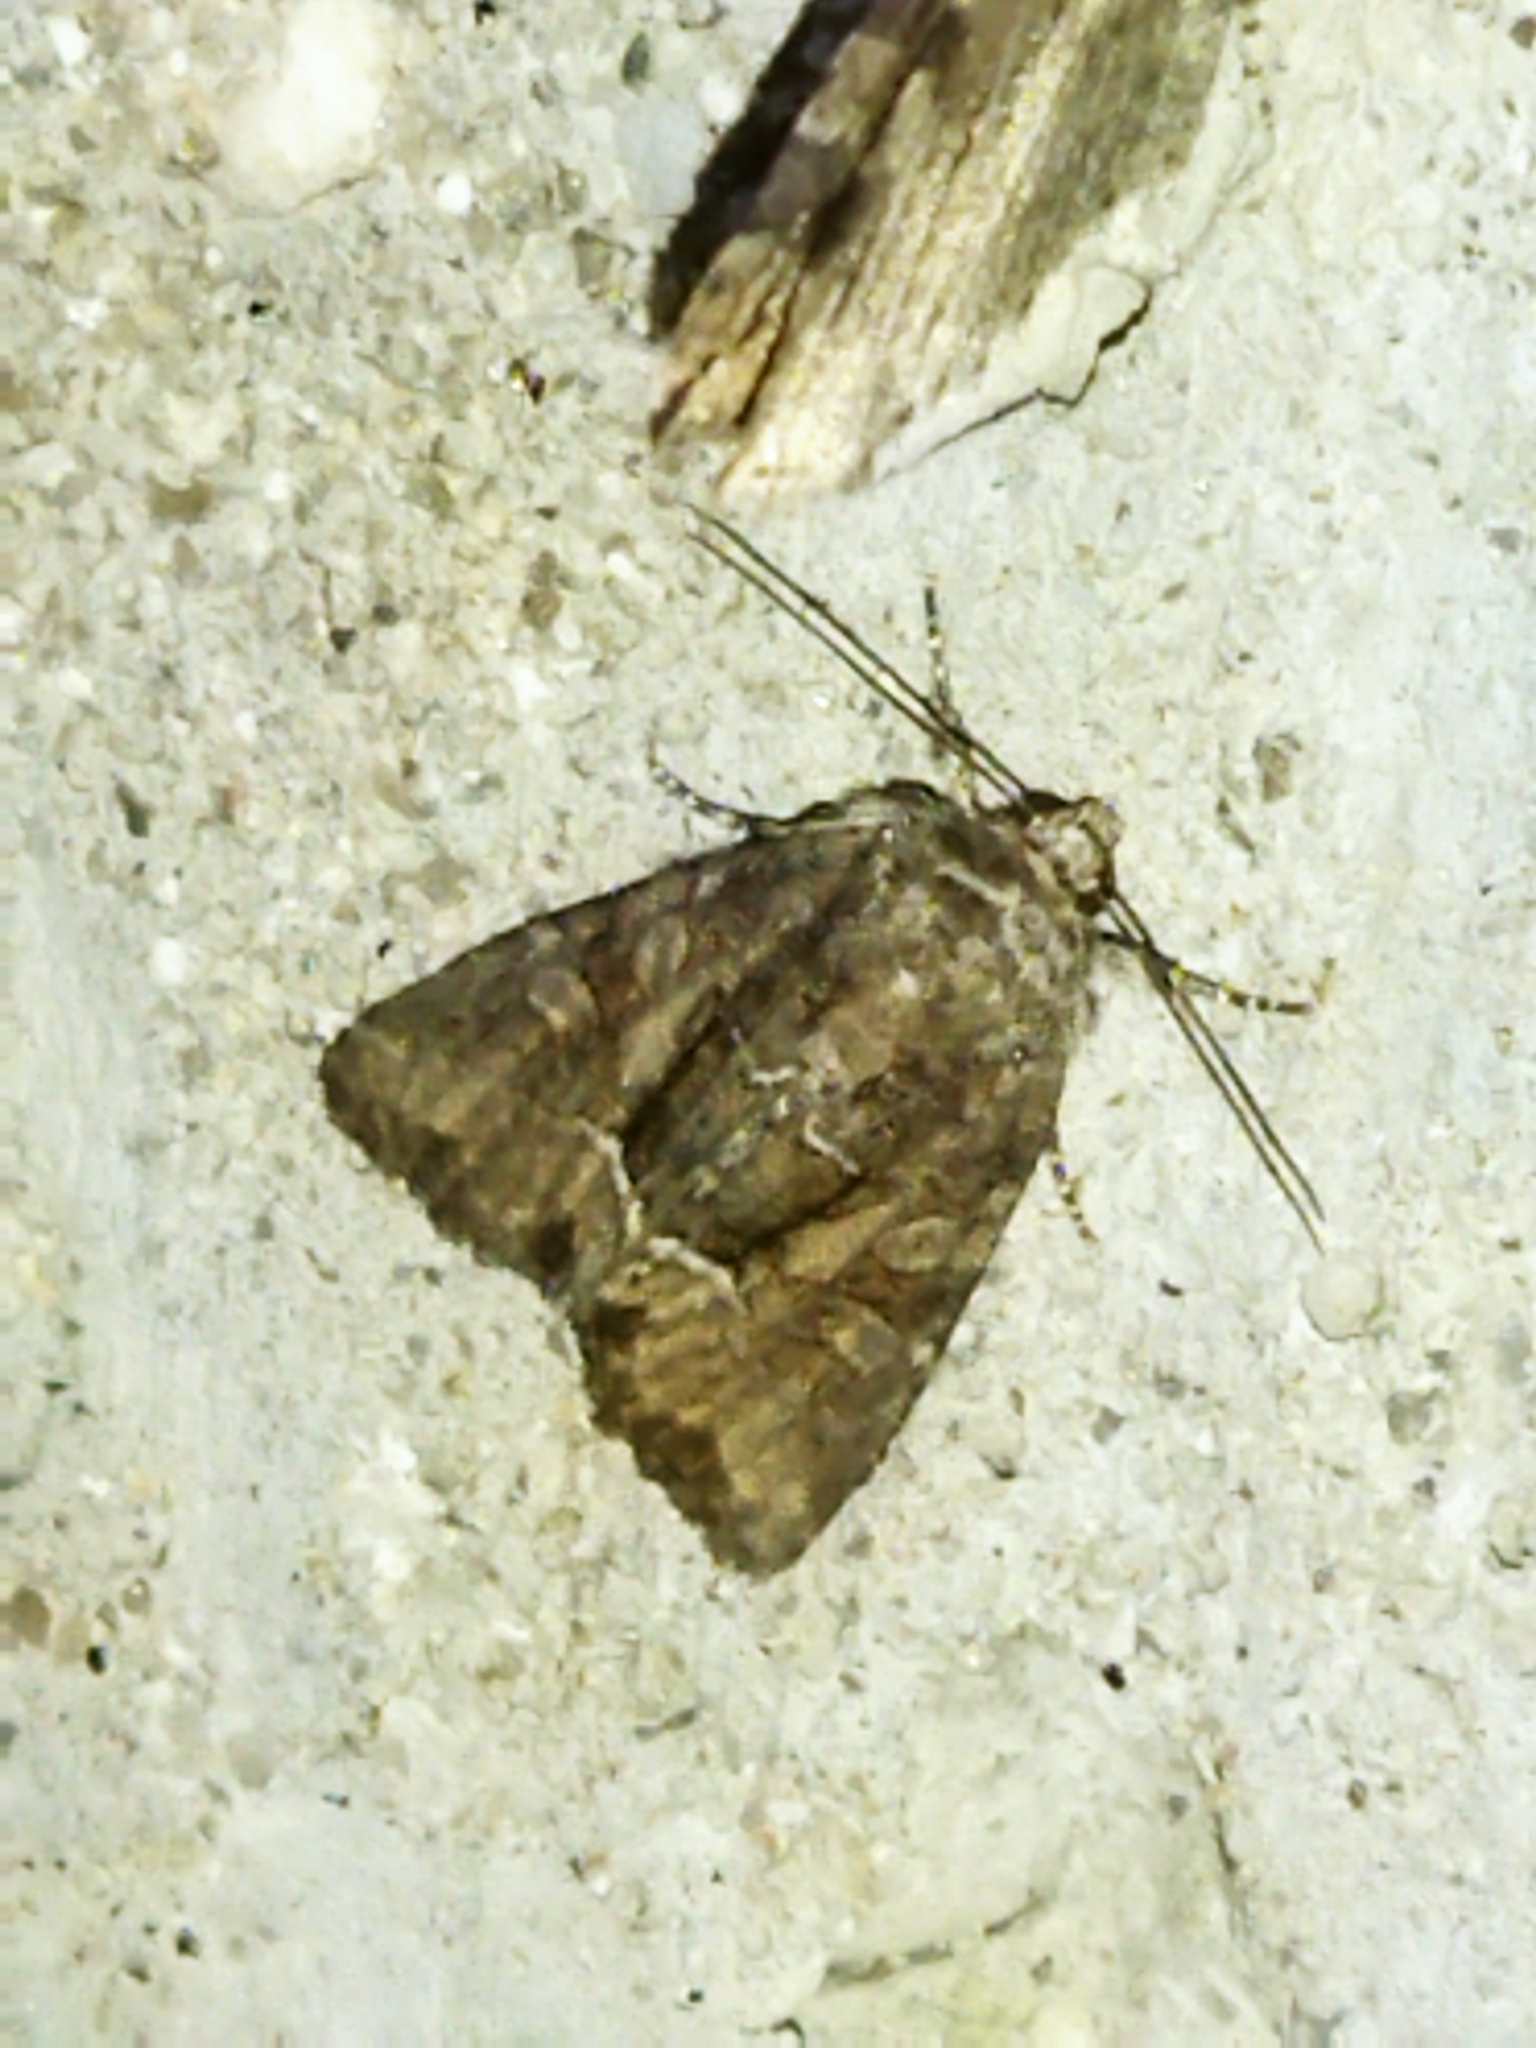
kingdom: Animalia
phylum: Arthropoda
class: Insecta
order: Lepidoptera
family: Noctuidae
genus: Thalpophila
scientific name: Thalpophila matura
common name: Straw underwing
